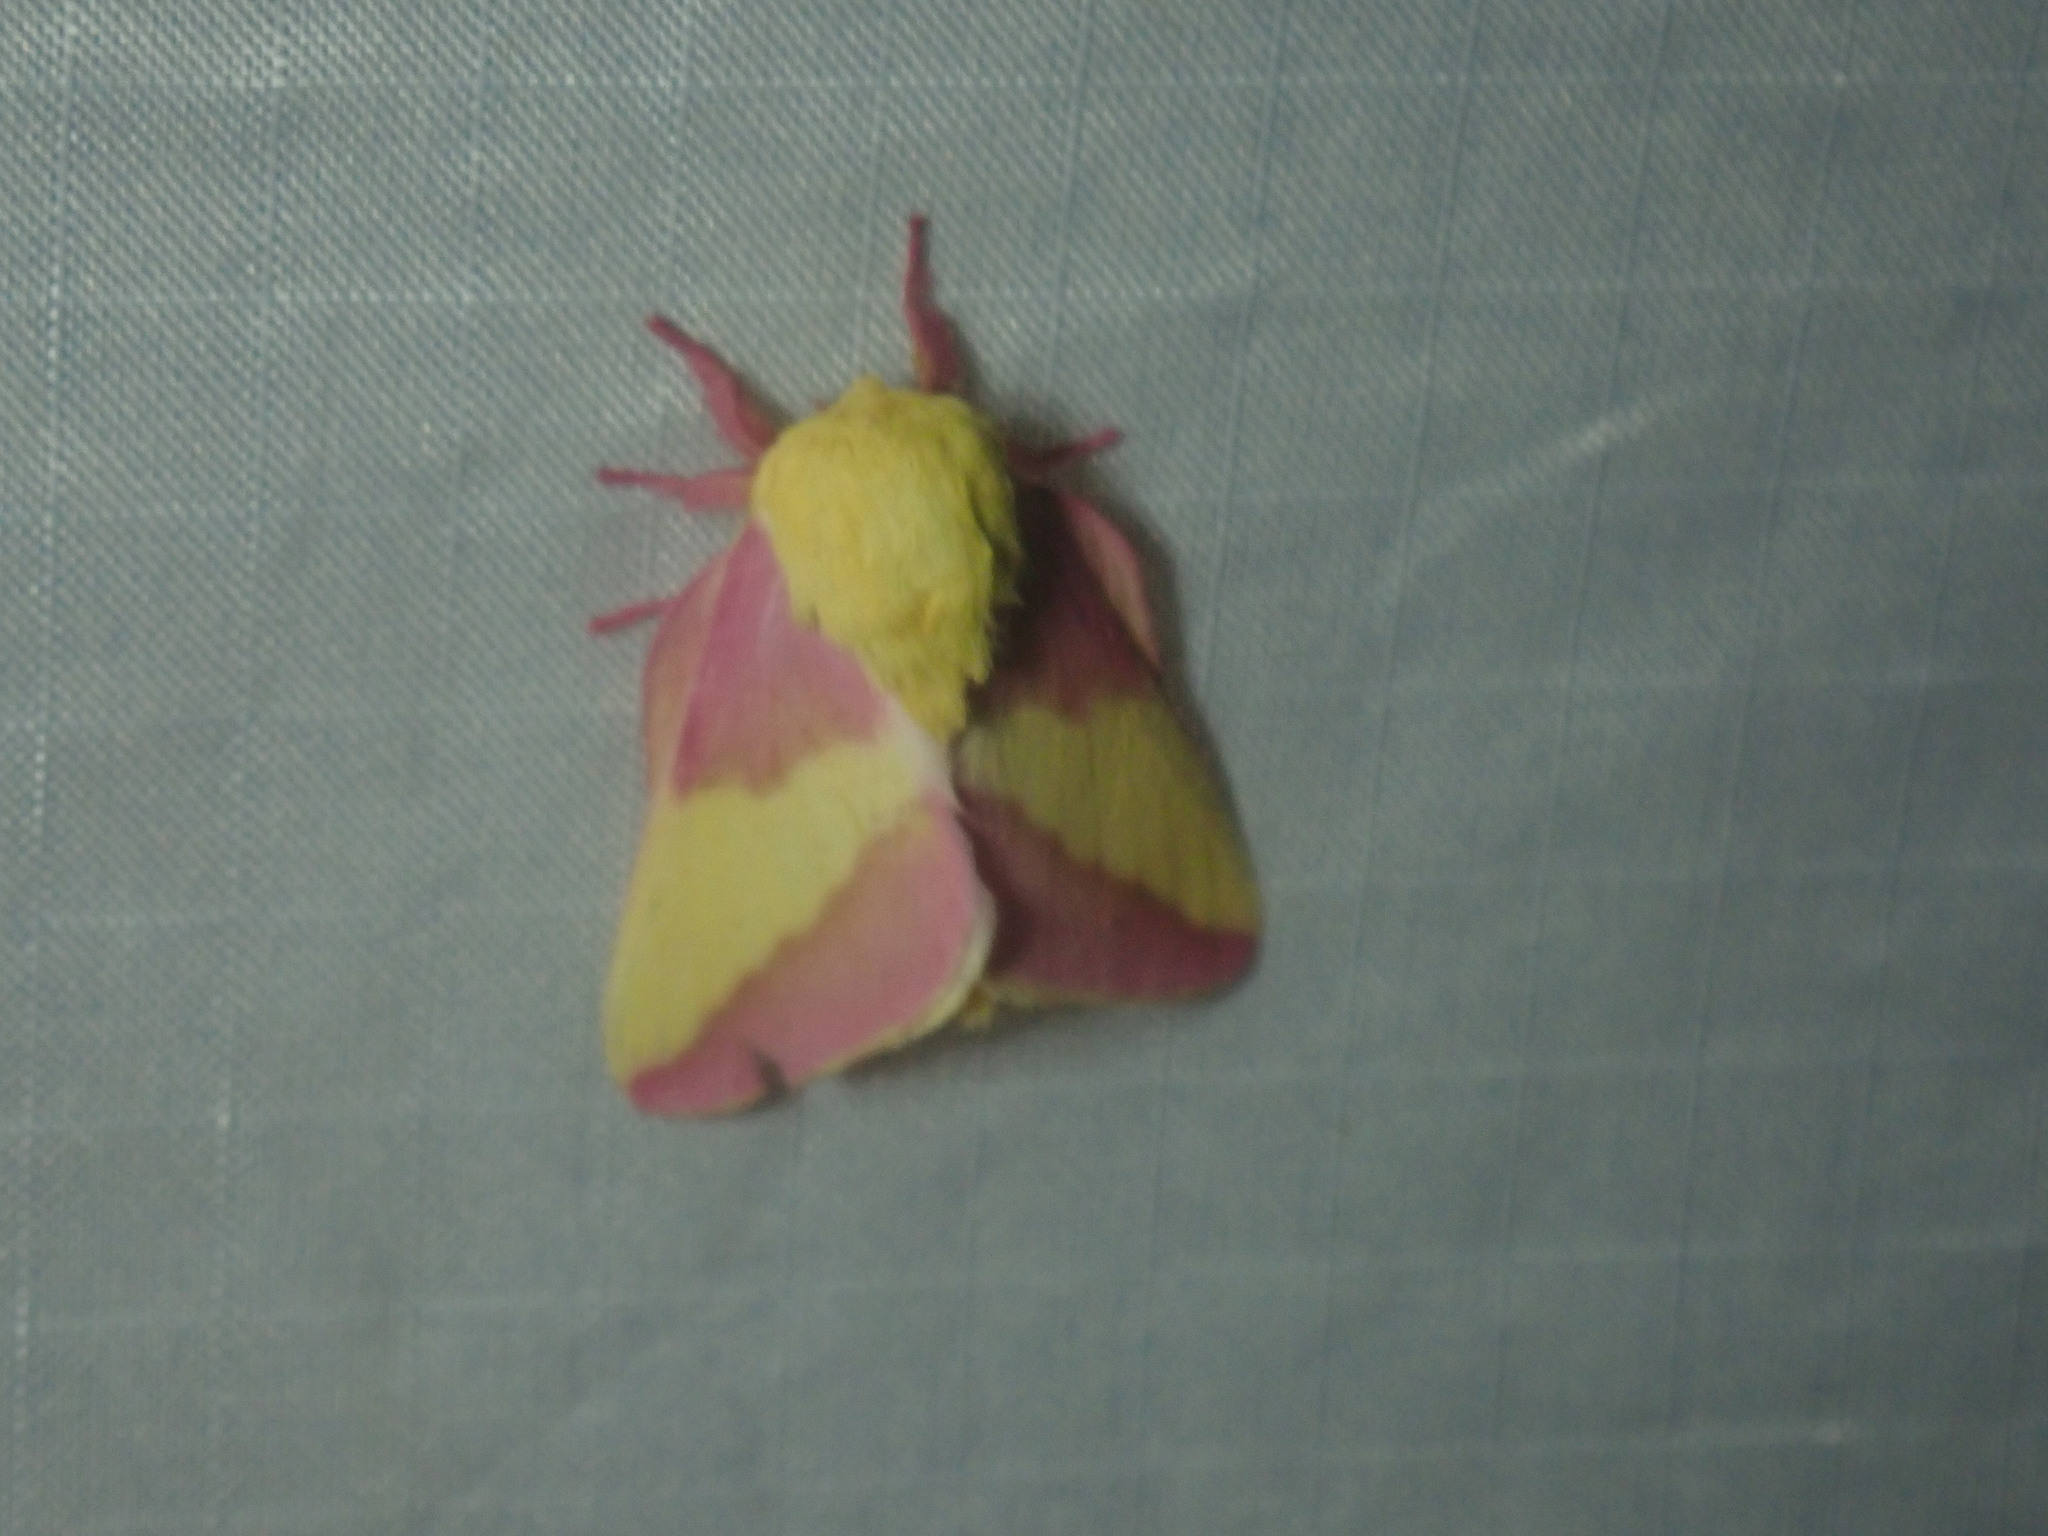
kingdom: Animalia
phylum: Arthropoda
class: Insecta
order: Lepidoptera
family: Saturniidae
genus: Dryocampa
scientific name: Dryocampa rubicunda
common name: Rosy maple moth
